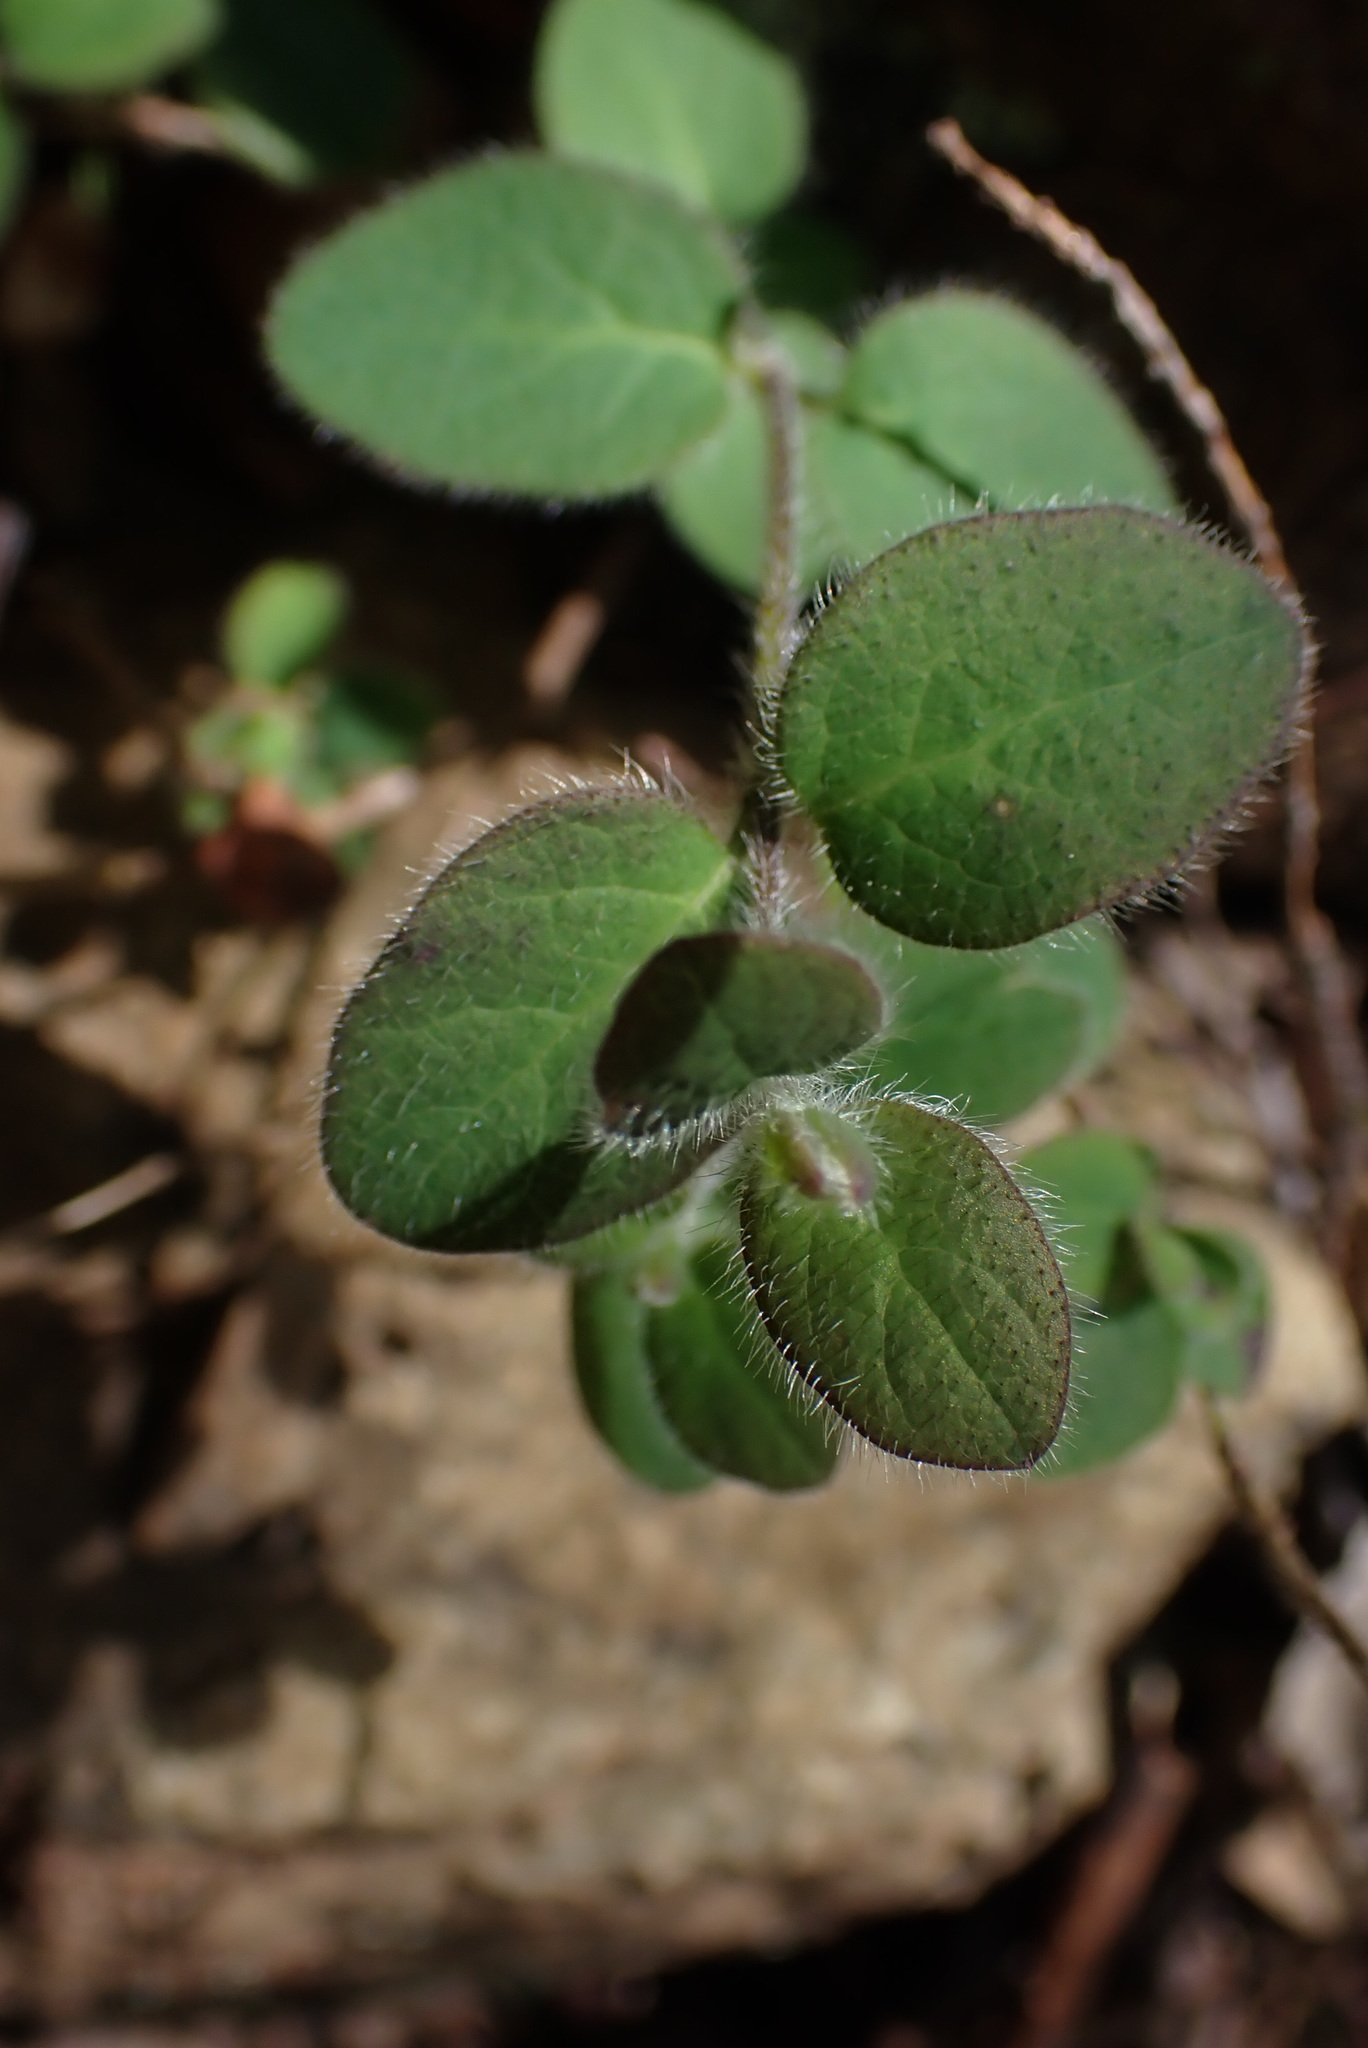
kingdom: Plantae
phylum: Tracheophyta
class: Magnoliopsida
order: Dipsacales
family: Caprifoliaceae
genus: Lonicera
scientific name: Lonicera hispidula
